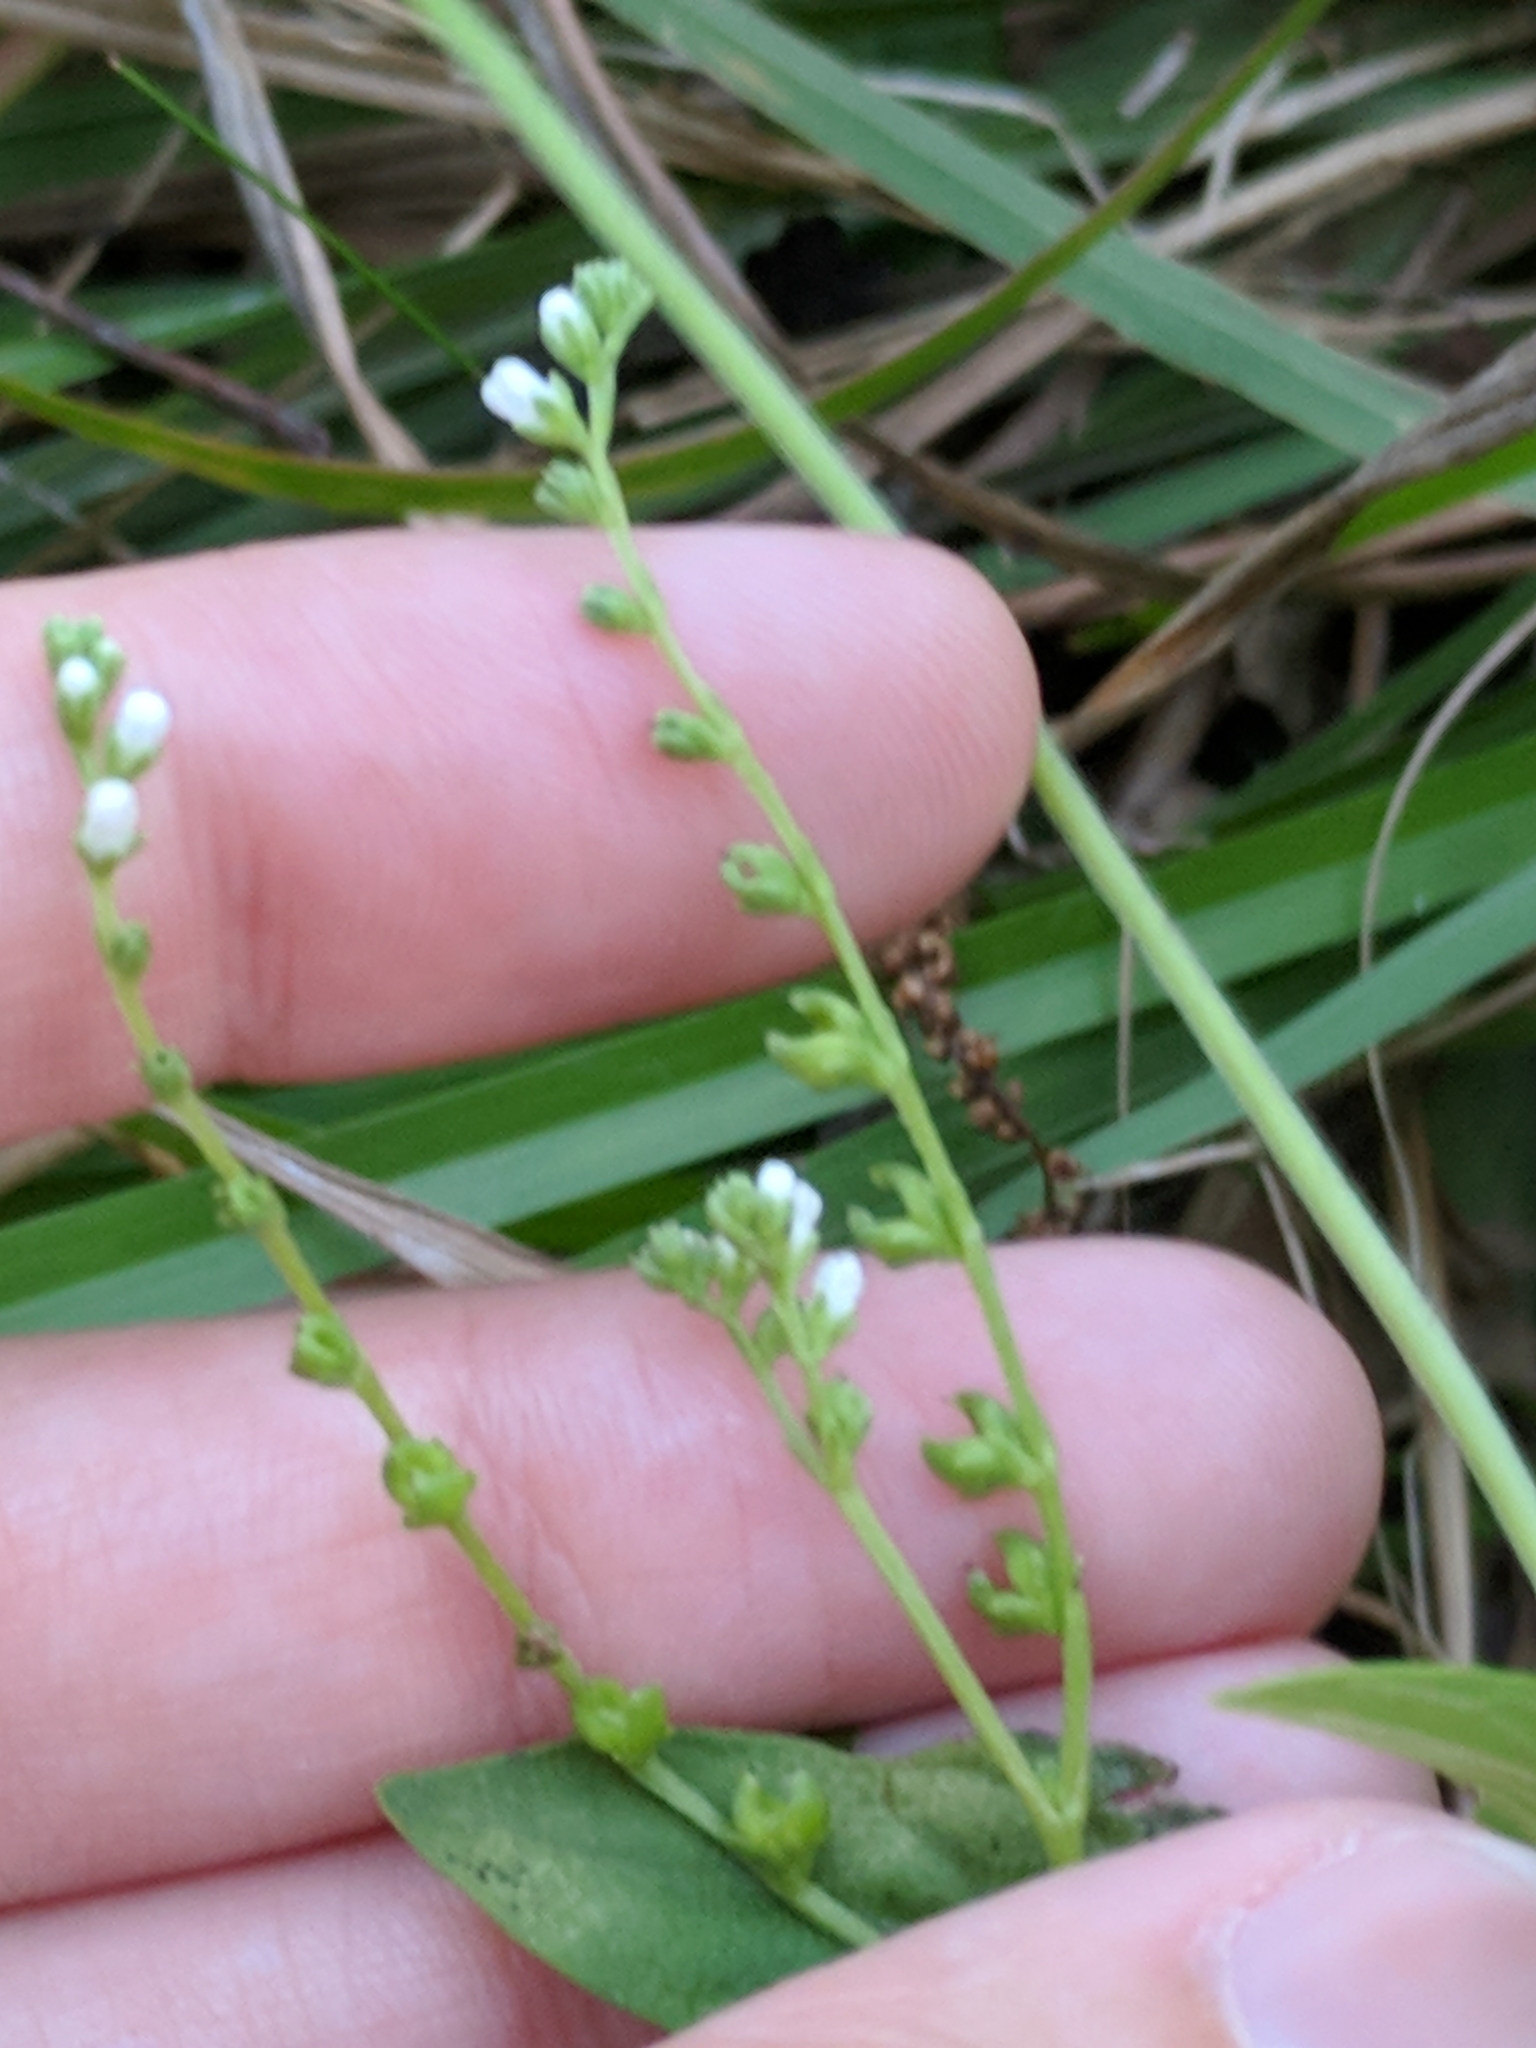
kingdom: Plantae
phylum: Tracheophyta
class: Magnoliopsida
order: Gentianales
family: Loganiaceae
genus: Mitreola
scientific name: Mitreola petiolata
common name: Lax hornpod
